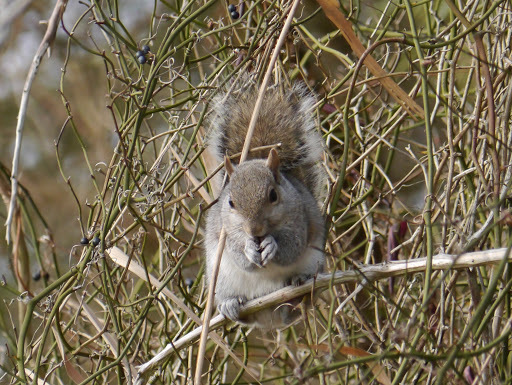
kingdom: Animalia
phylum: Chordata
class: Mammalia
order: Rodentia
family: Sciuridae
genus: Sciurus
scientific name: Sciurus carolinensis
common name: Eastern gray squirrel
